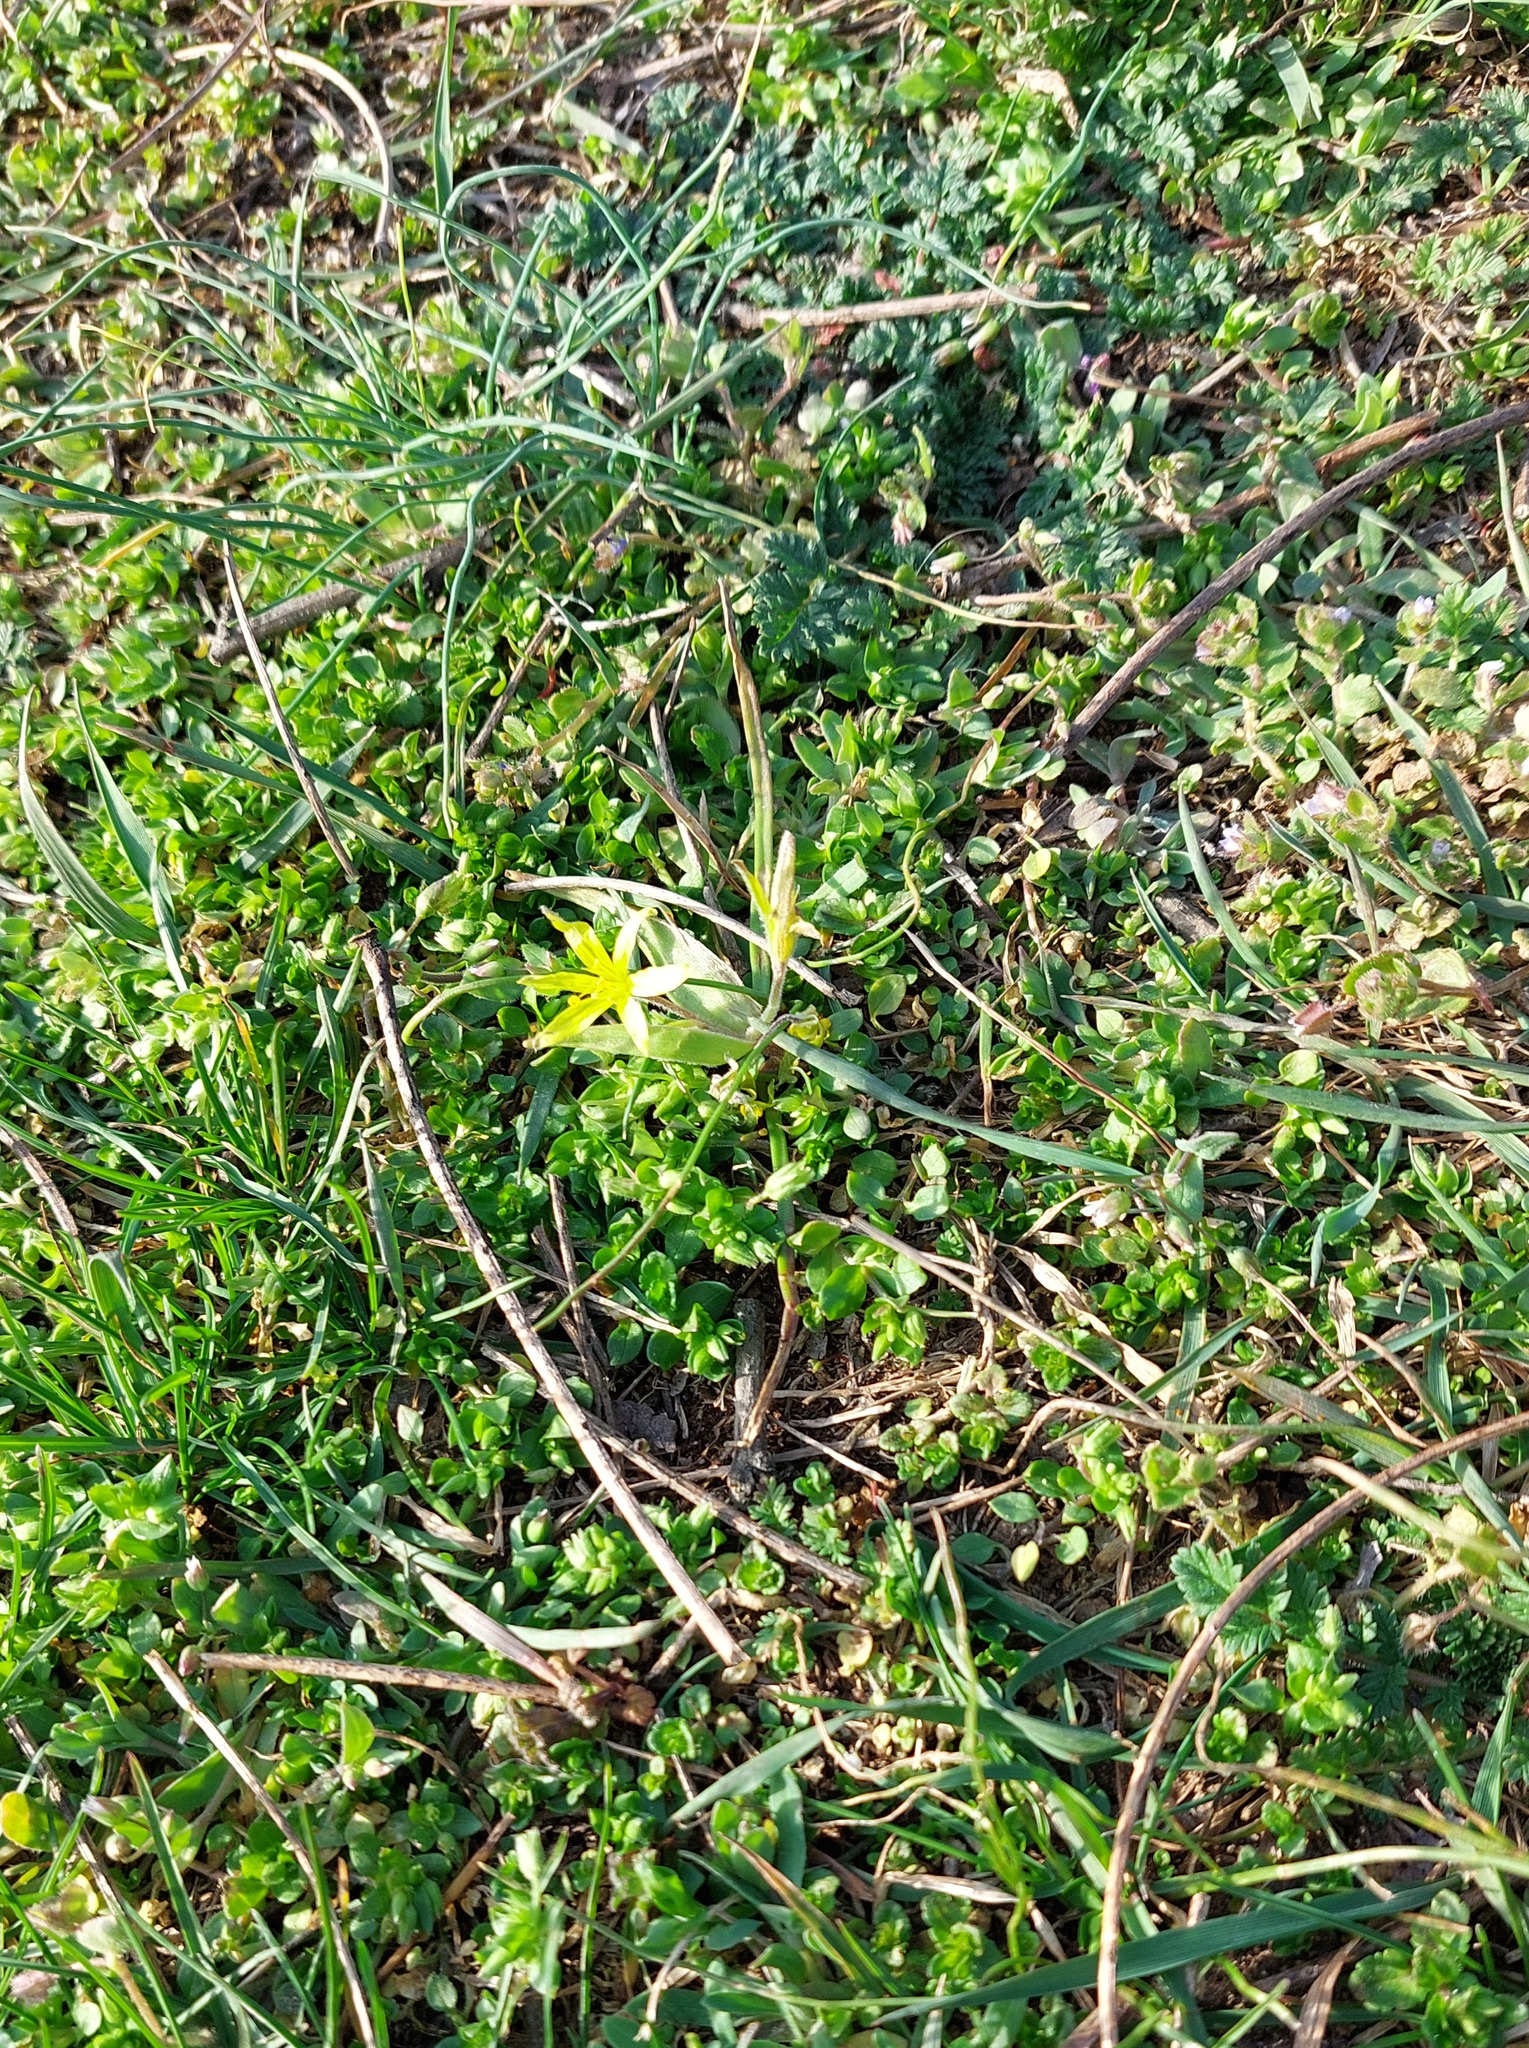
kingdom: Plantae
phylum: Tracheophyta
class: Liliopsida
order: Liliales
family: Liliaceae
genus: Gagea
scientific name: Gagea villosa
